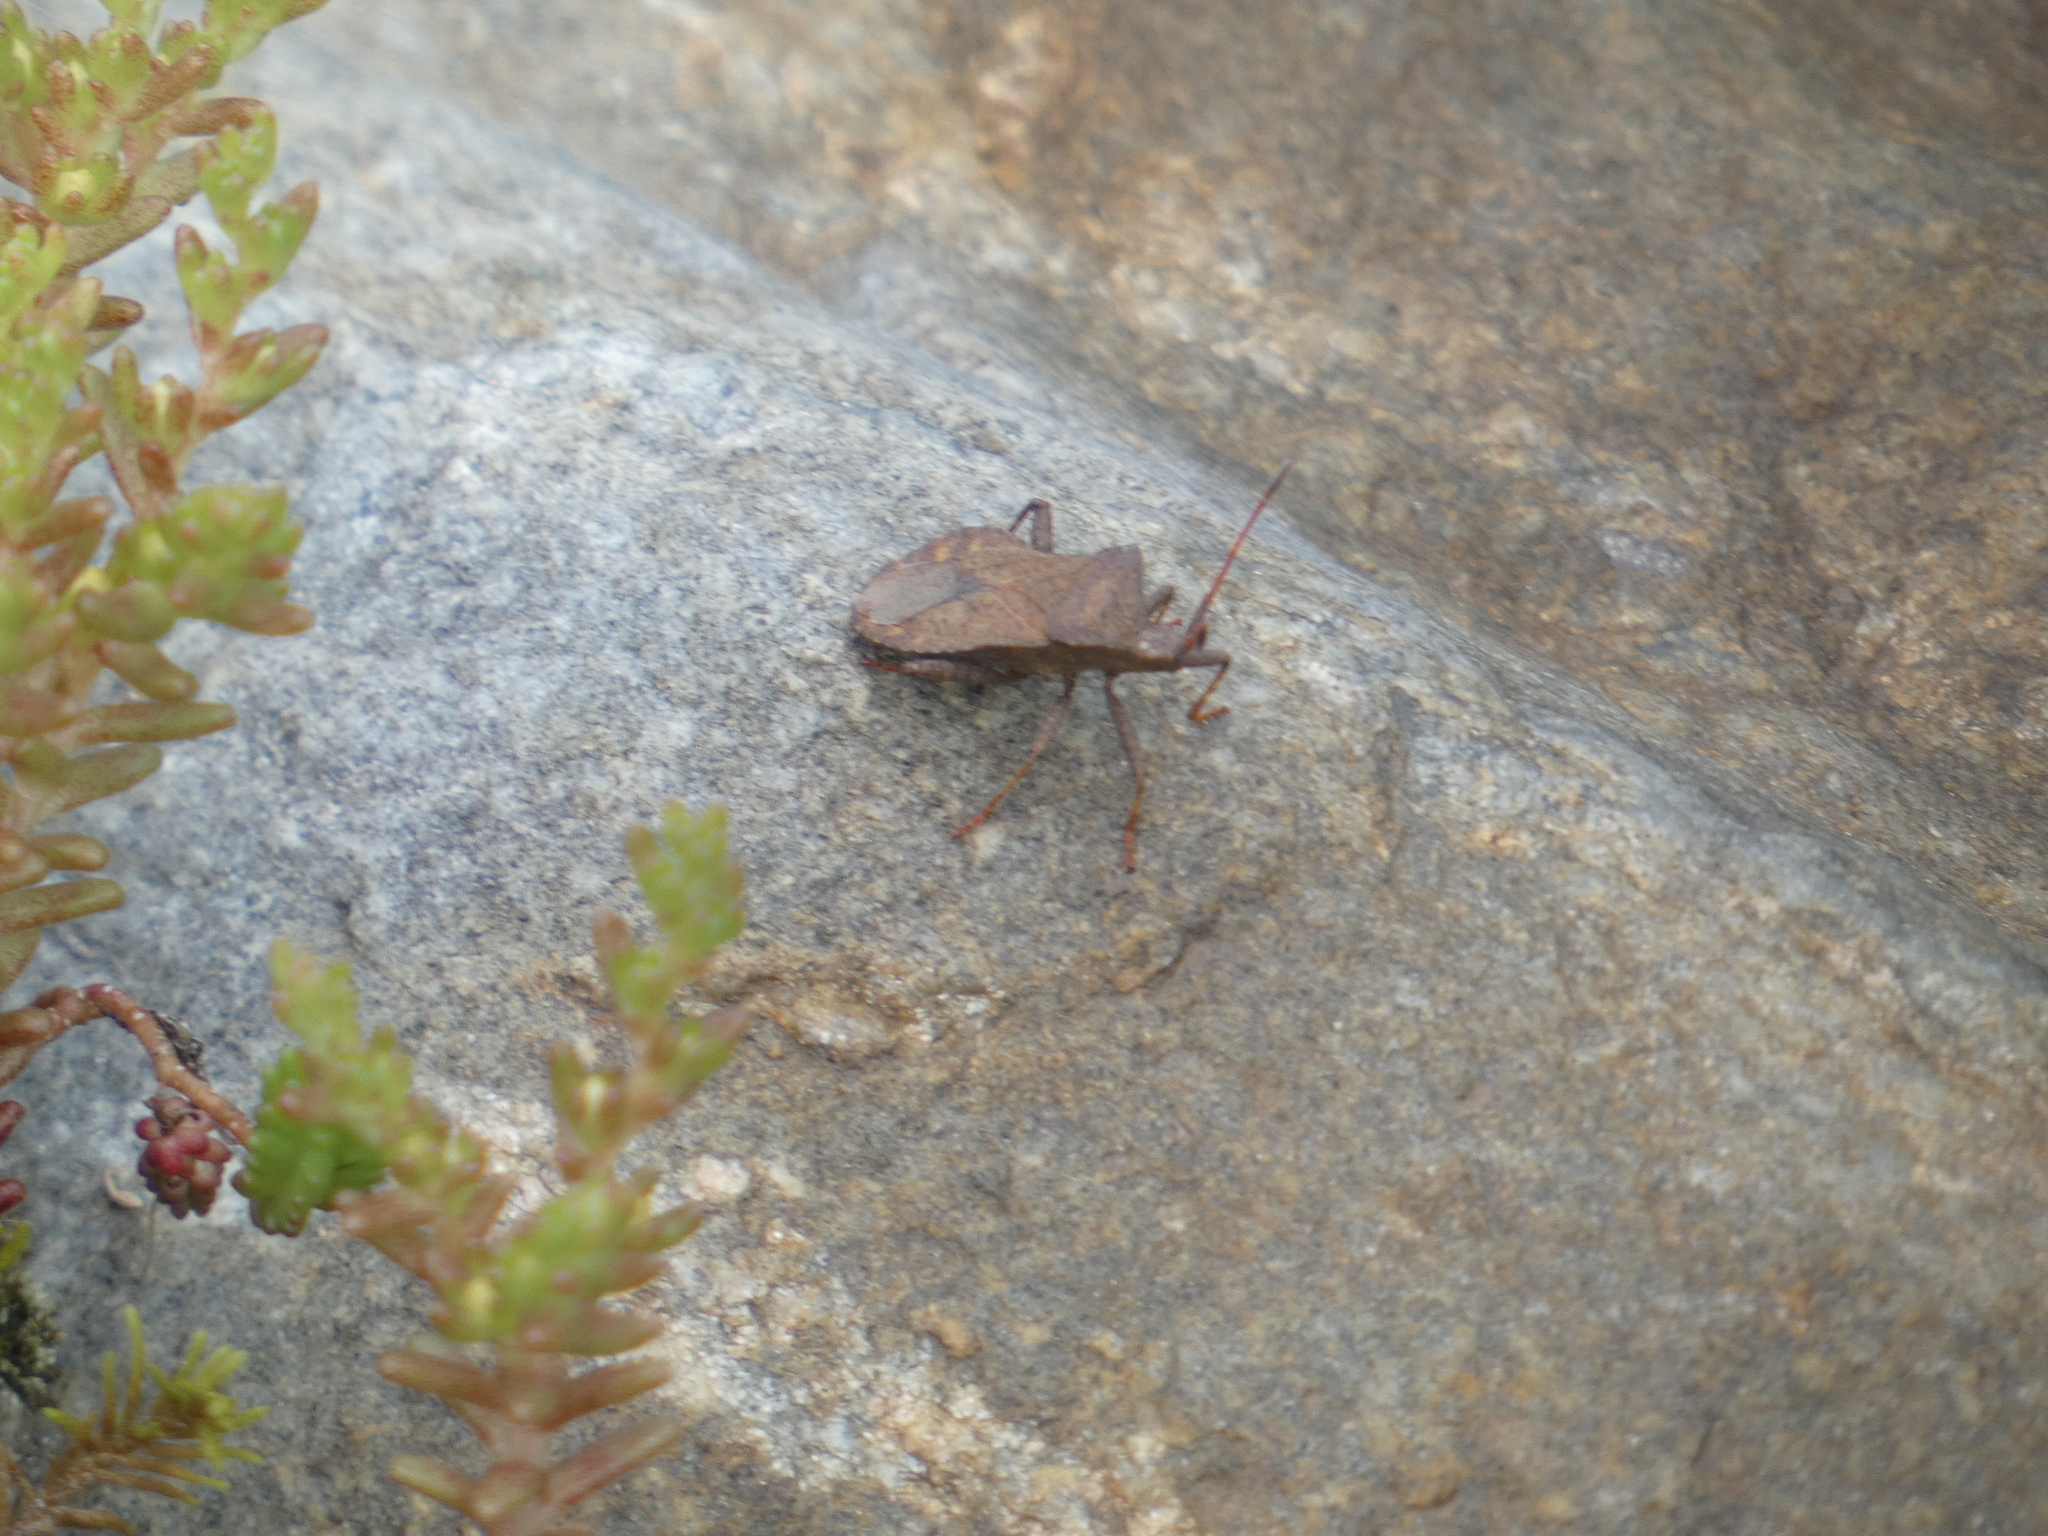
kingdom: Animalia
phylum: Arthropoda
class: Insecta
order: Hemiptera
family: Coreidae
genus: Coreus
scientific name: Coreus marginatus
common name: Dock bug
